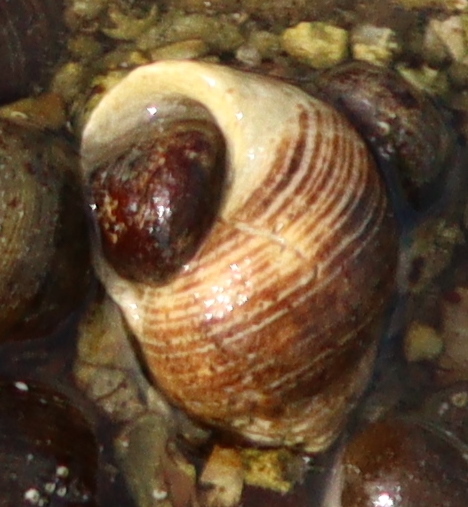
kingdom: Animalia
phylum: Mollusca
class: Gastropoda
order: Littorinimorpha
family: Littorinidae
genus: Littorina
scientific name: Littorina littorea
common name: Common periwinkle
